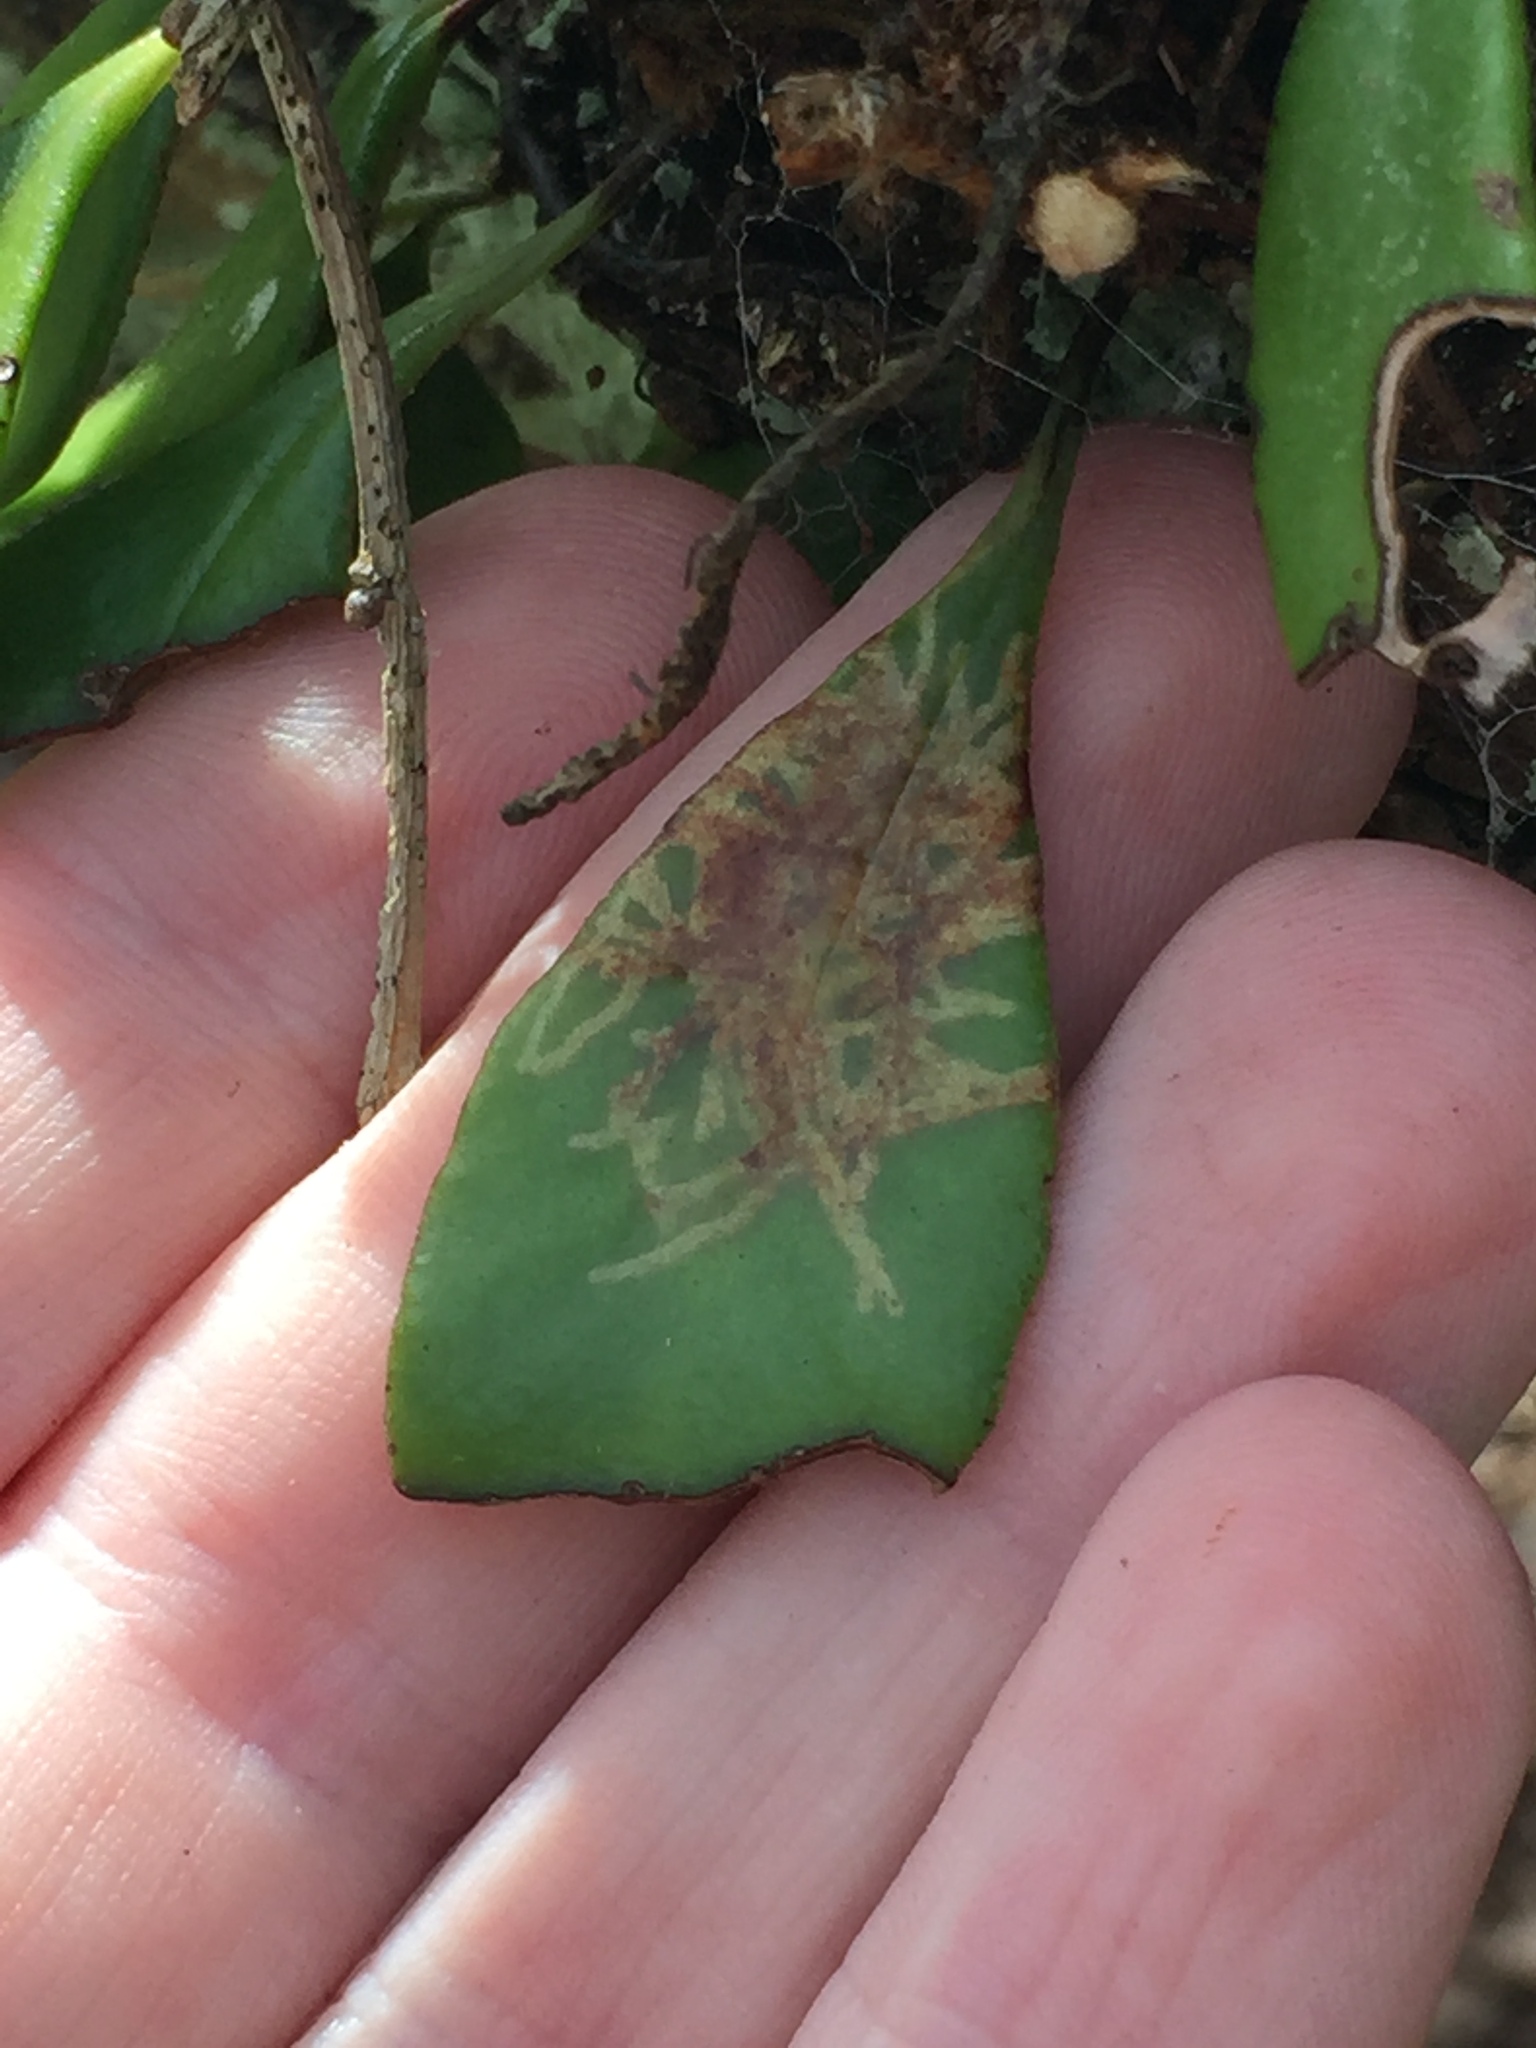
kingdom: Animalia
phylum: Arthropoda
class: Insecta
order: Lepidoptera
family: Tortricidae
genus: Philocryptica
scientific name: Philocryptica polypodii
